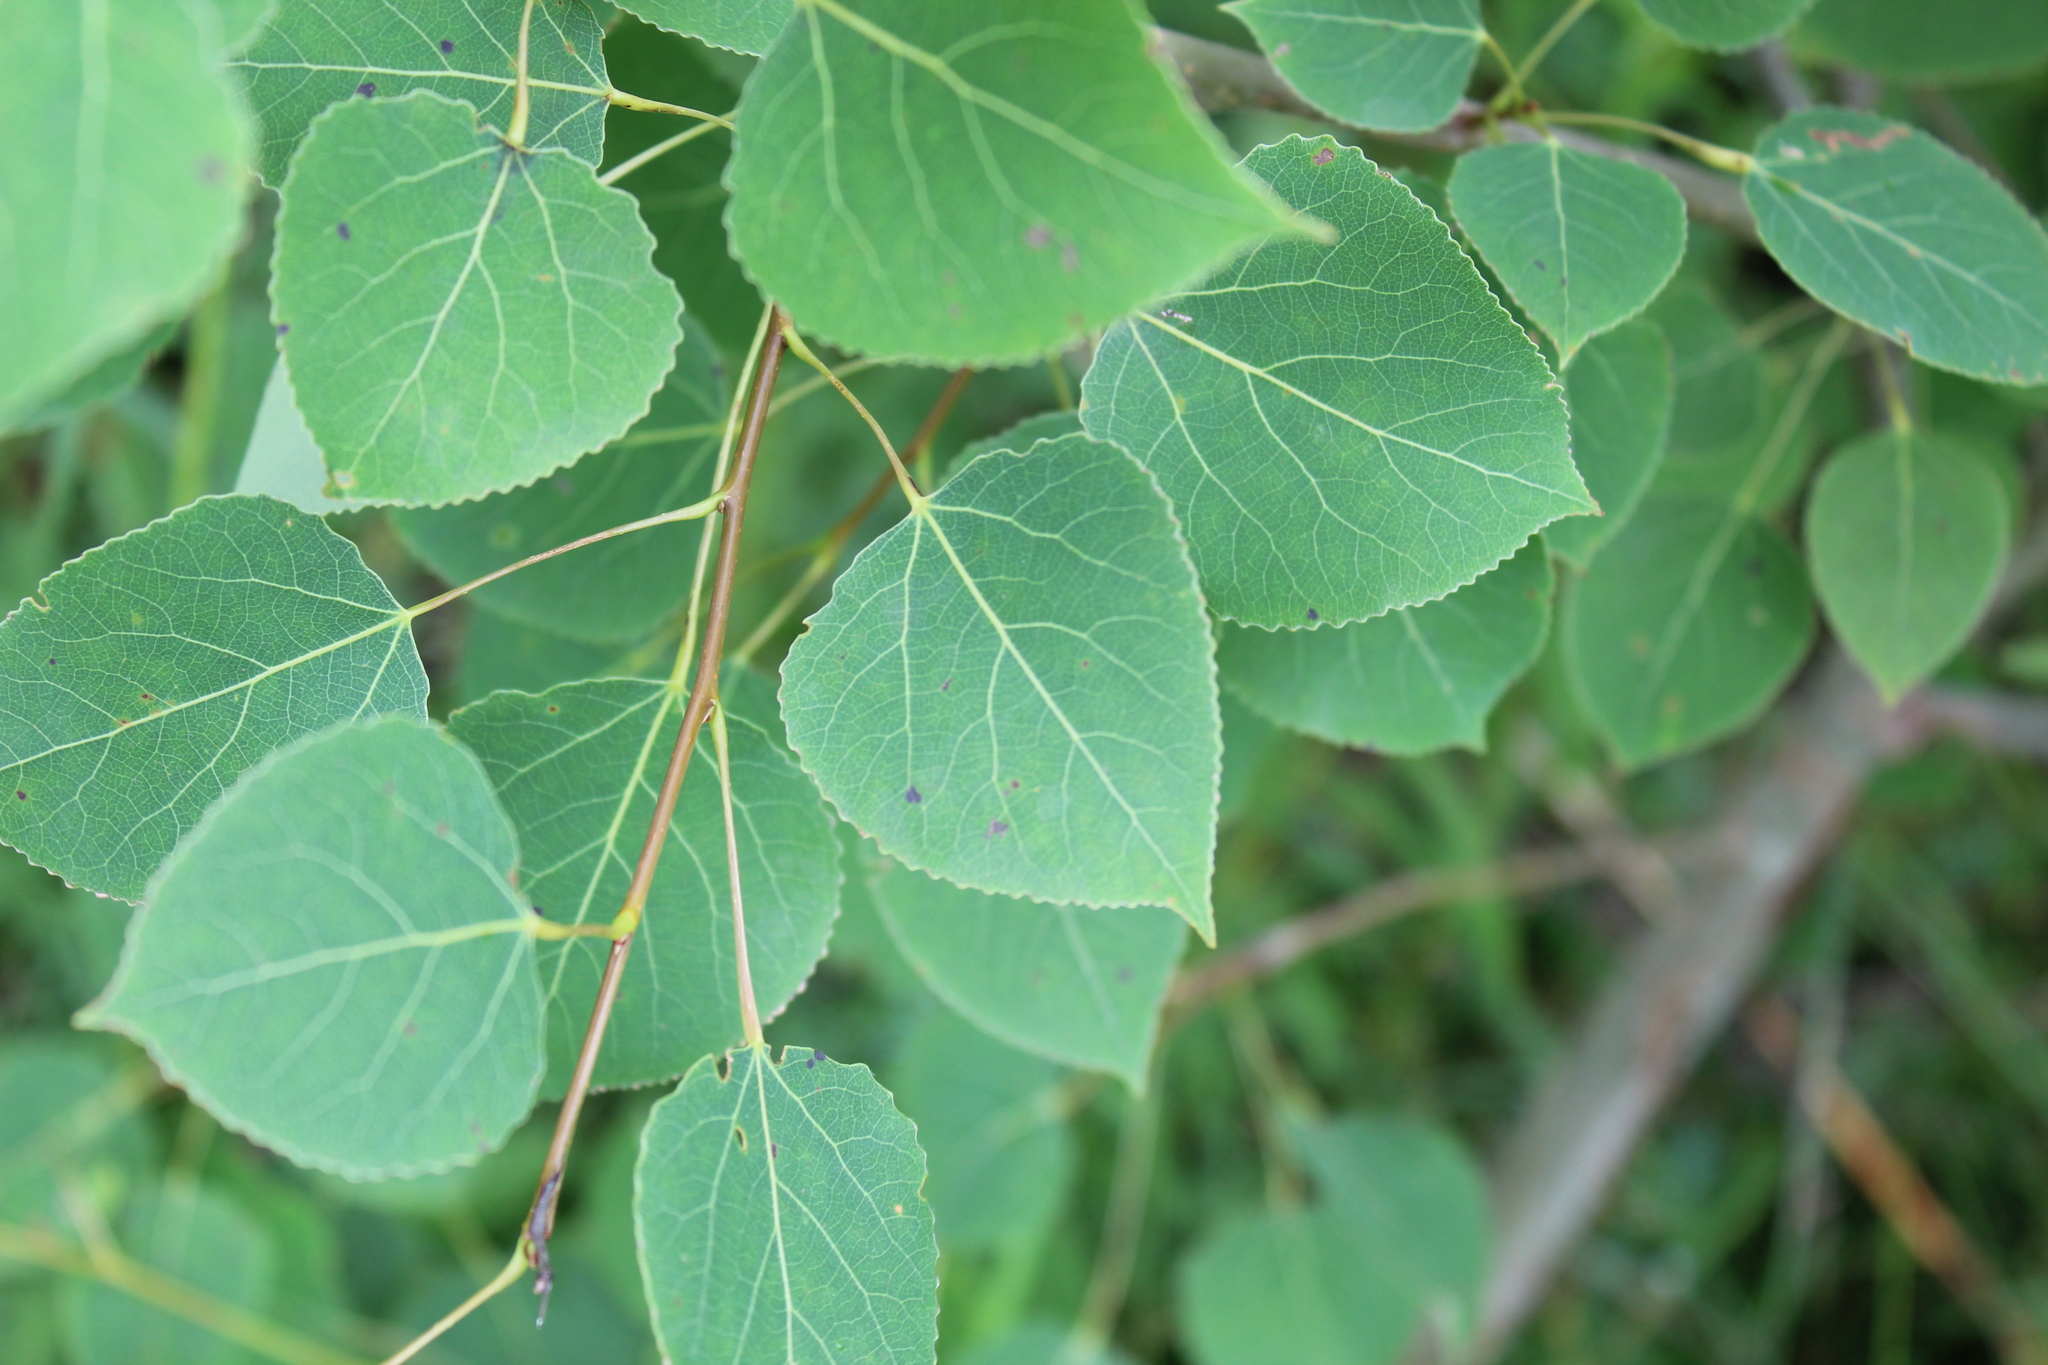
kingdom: Plantae
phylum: Tracheophyta
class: Magnoliopsida
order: Malpighiales
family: Salicaceae
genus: Populus
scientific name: Populus tremuloides
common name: Quaking aspen
